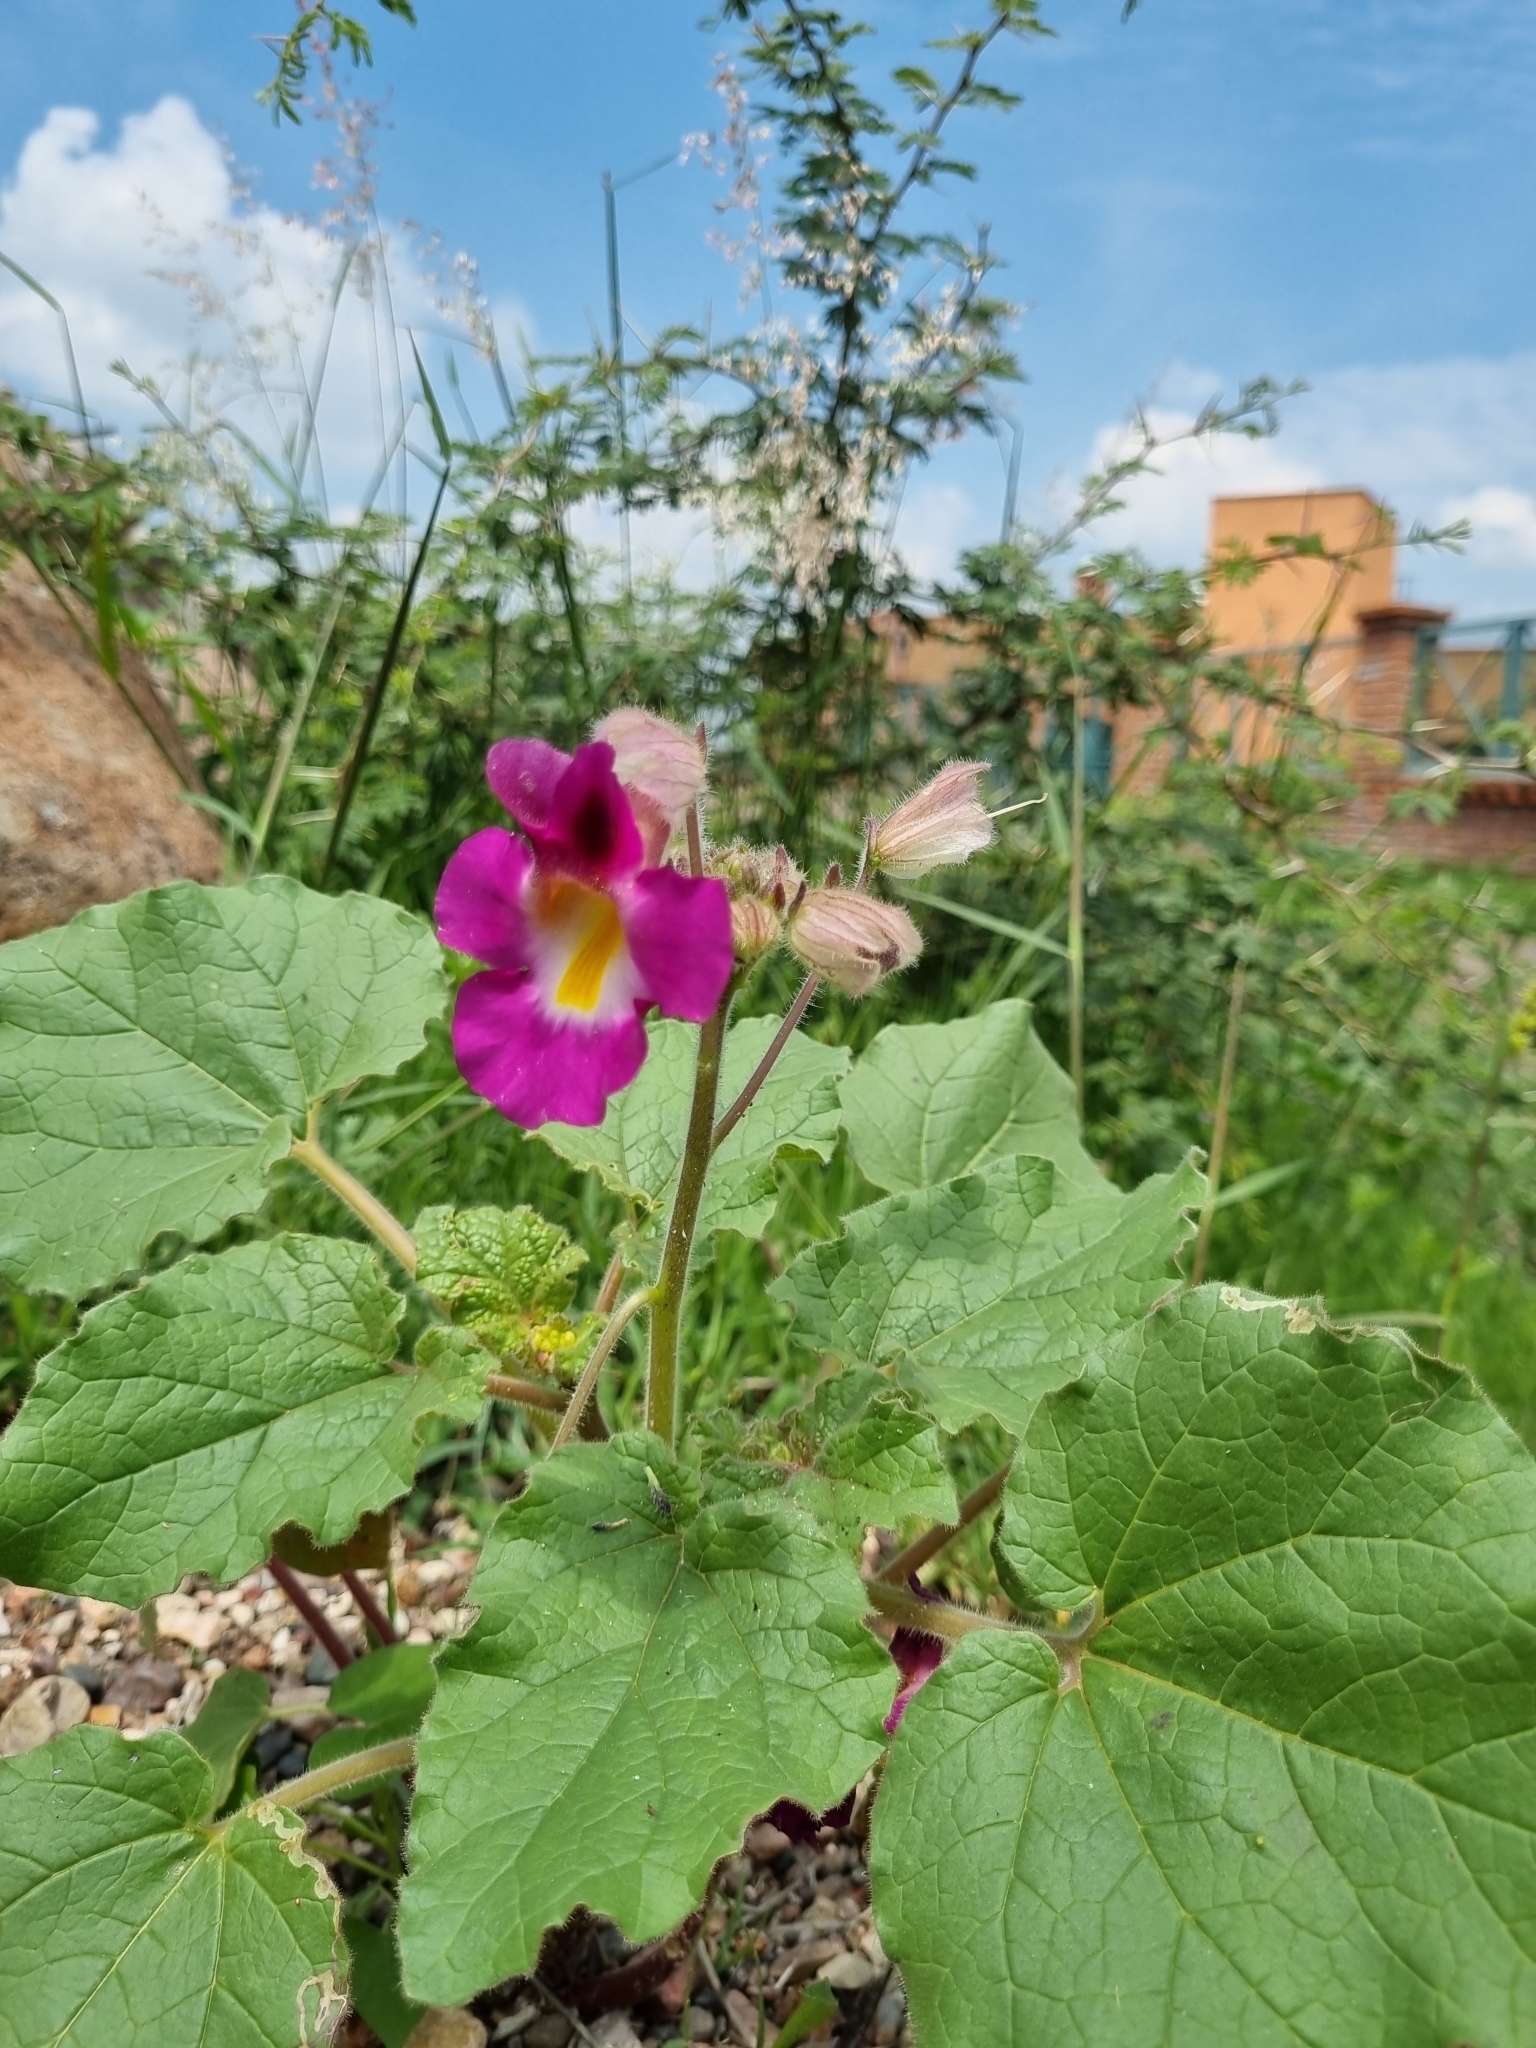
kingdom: Plantae
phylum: Tracheophyta
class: Magnoliopsida
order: Lamiales
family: Martyniaceae
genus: Proboscidea
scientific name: Proboscidea parviflora
